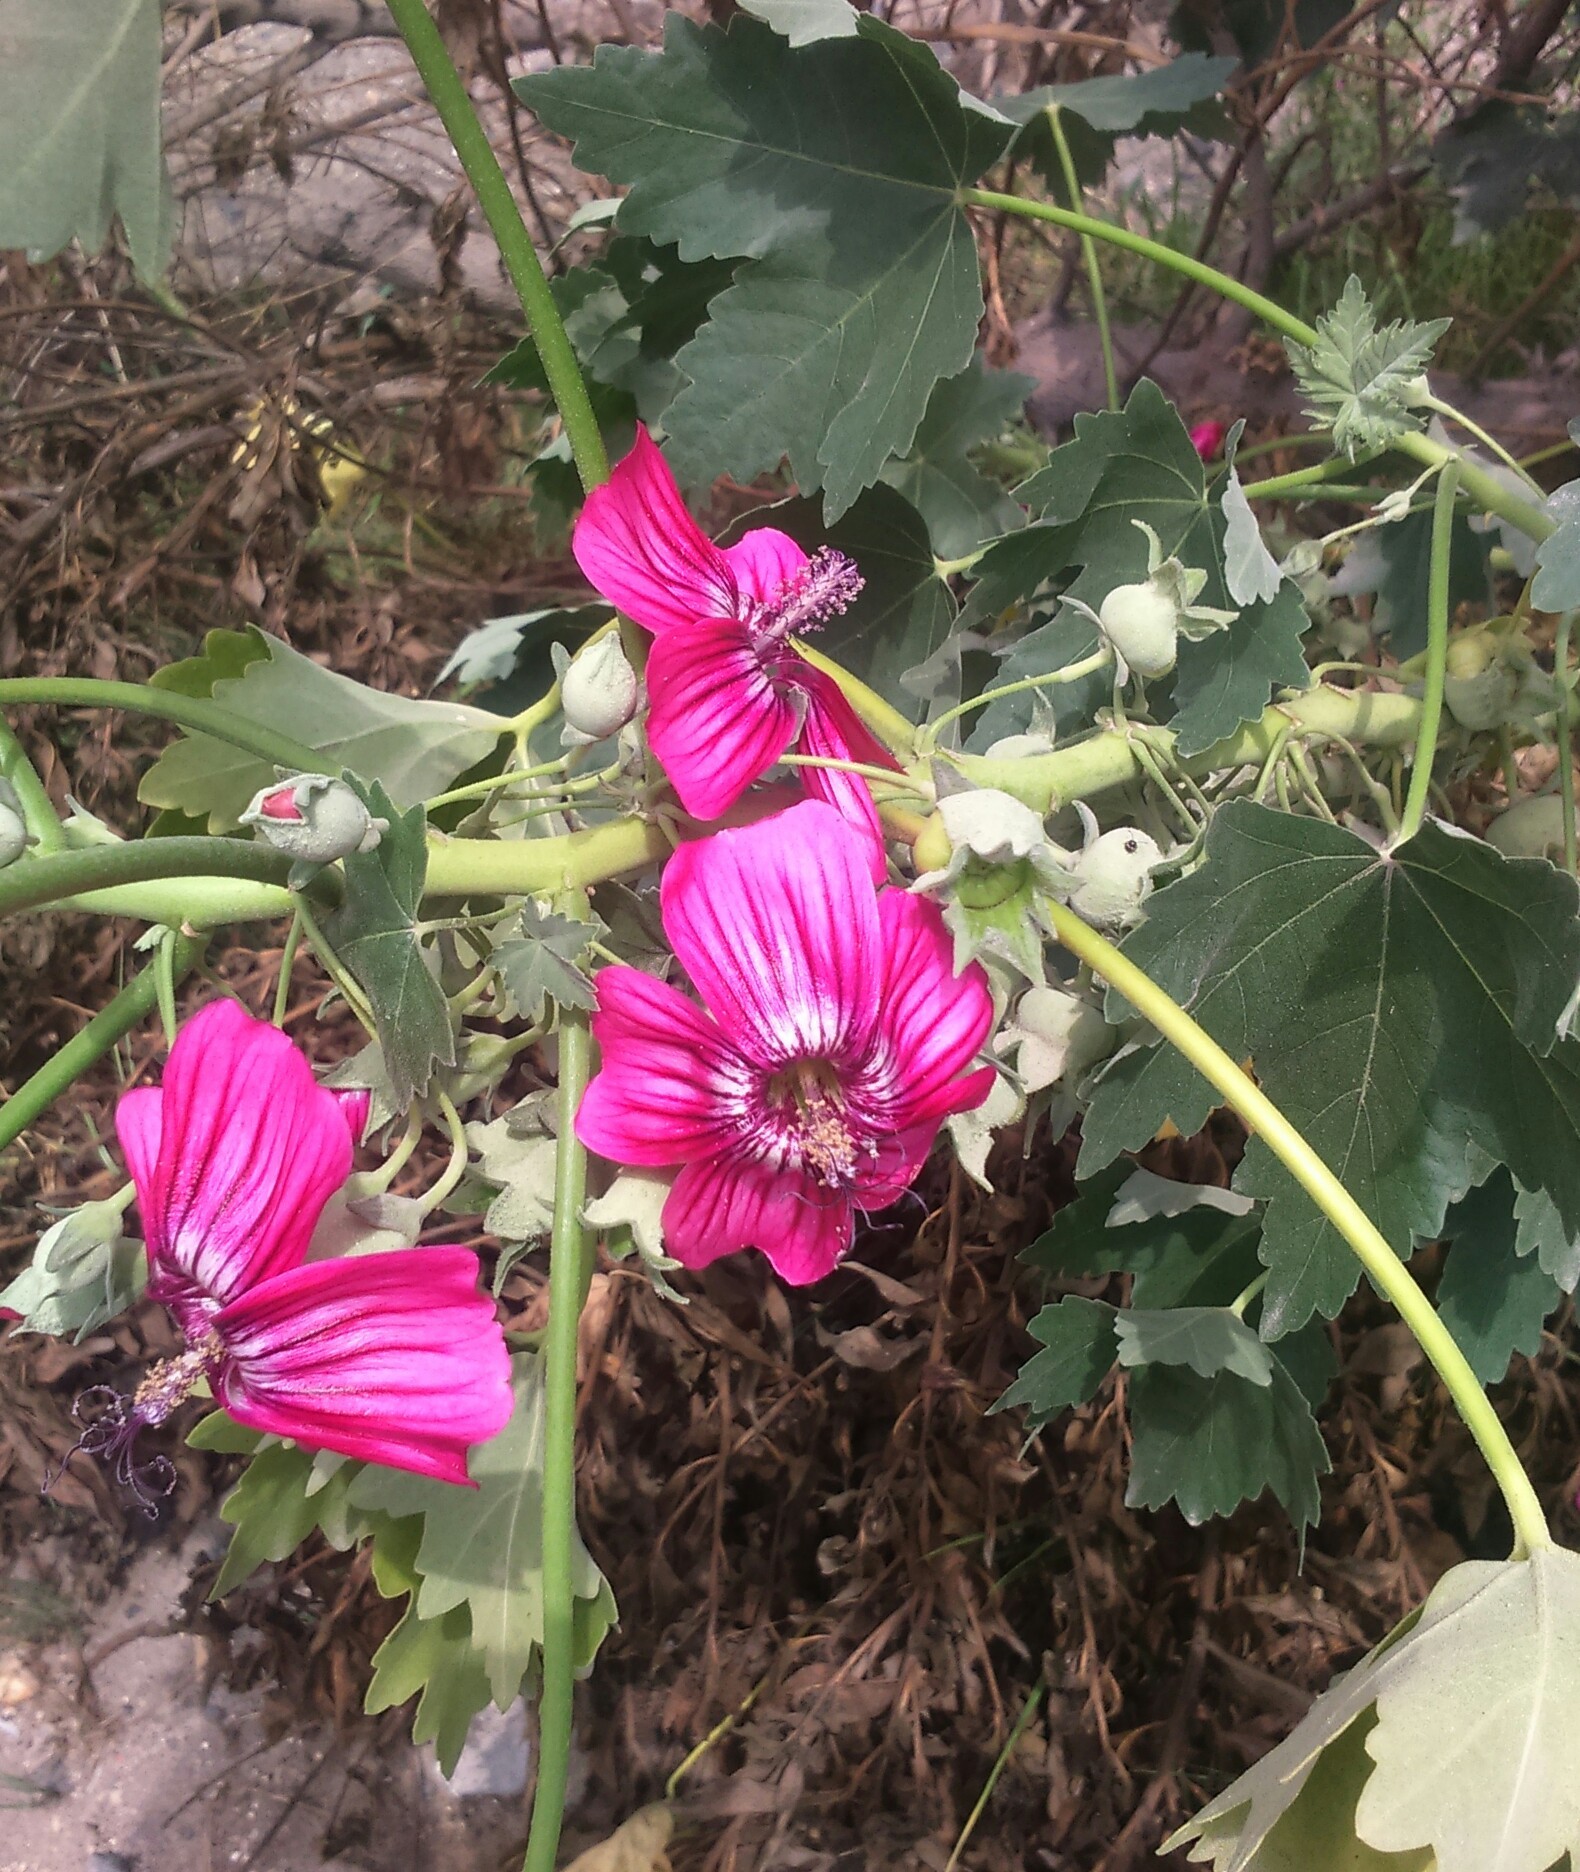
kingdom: Plantae
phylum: Tracheophyta
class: Magnoliopsida
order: Malvales
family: Malvaceae
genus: Malva
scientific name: Malva assurgentiflora
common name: Island mallow
